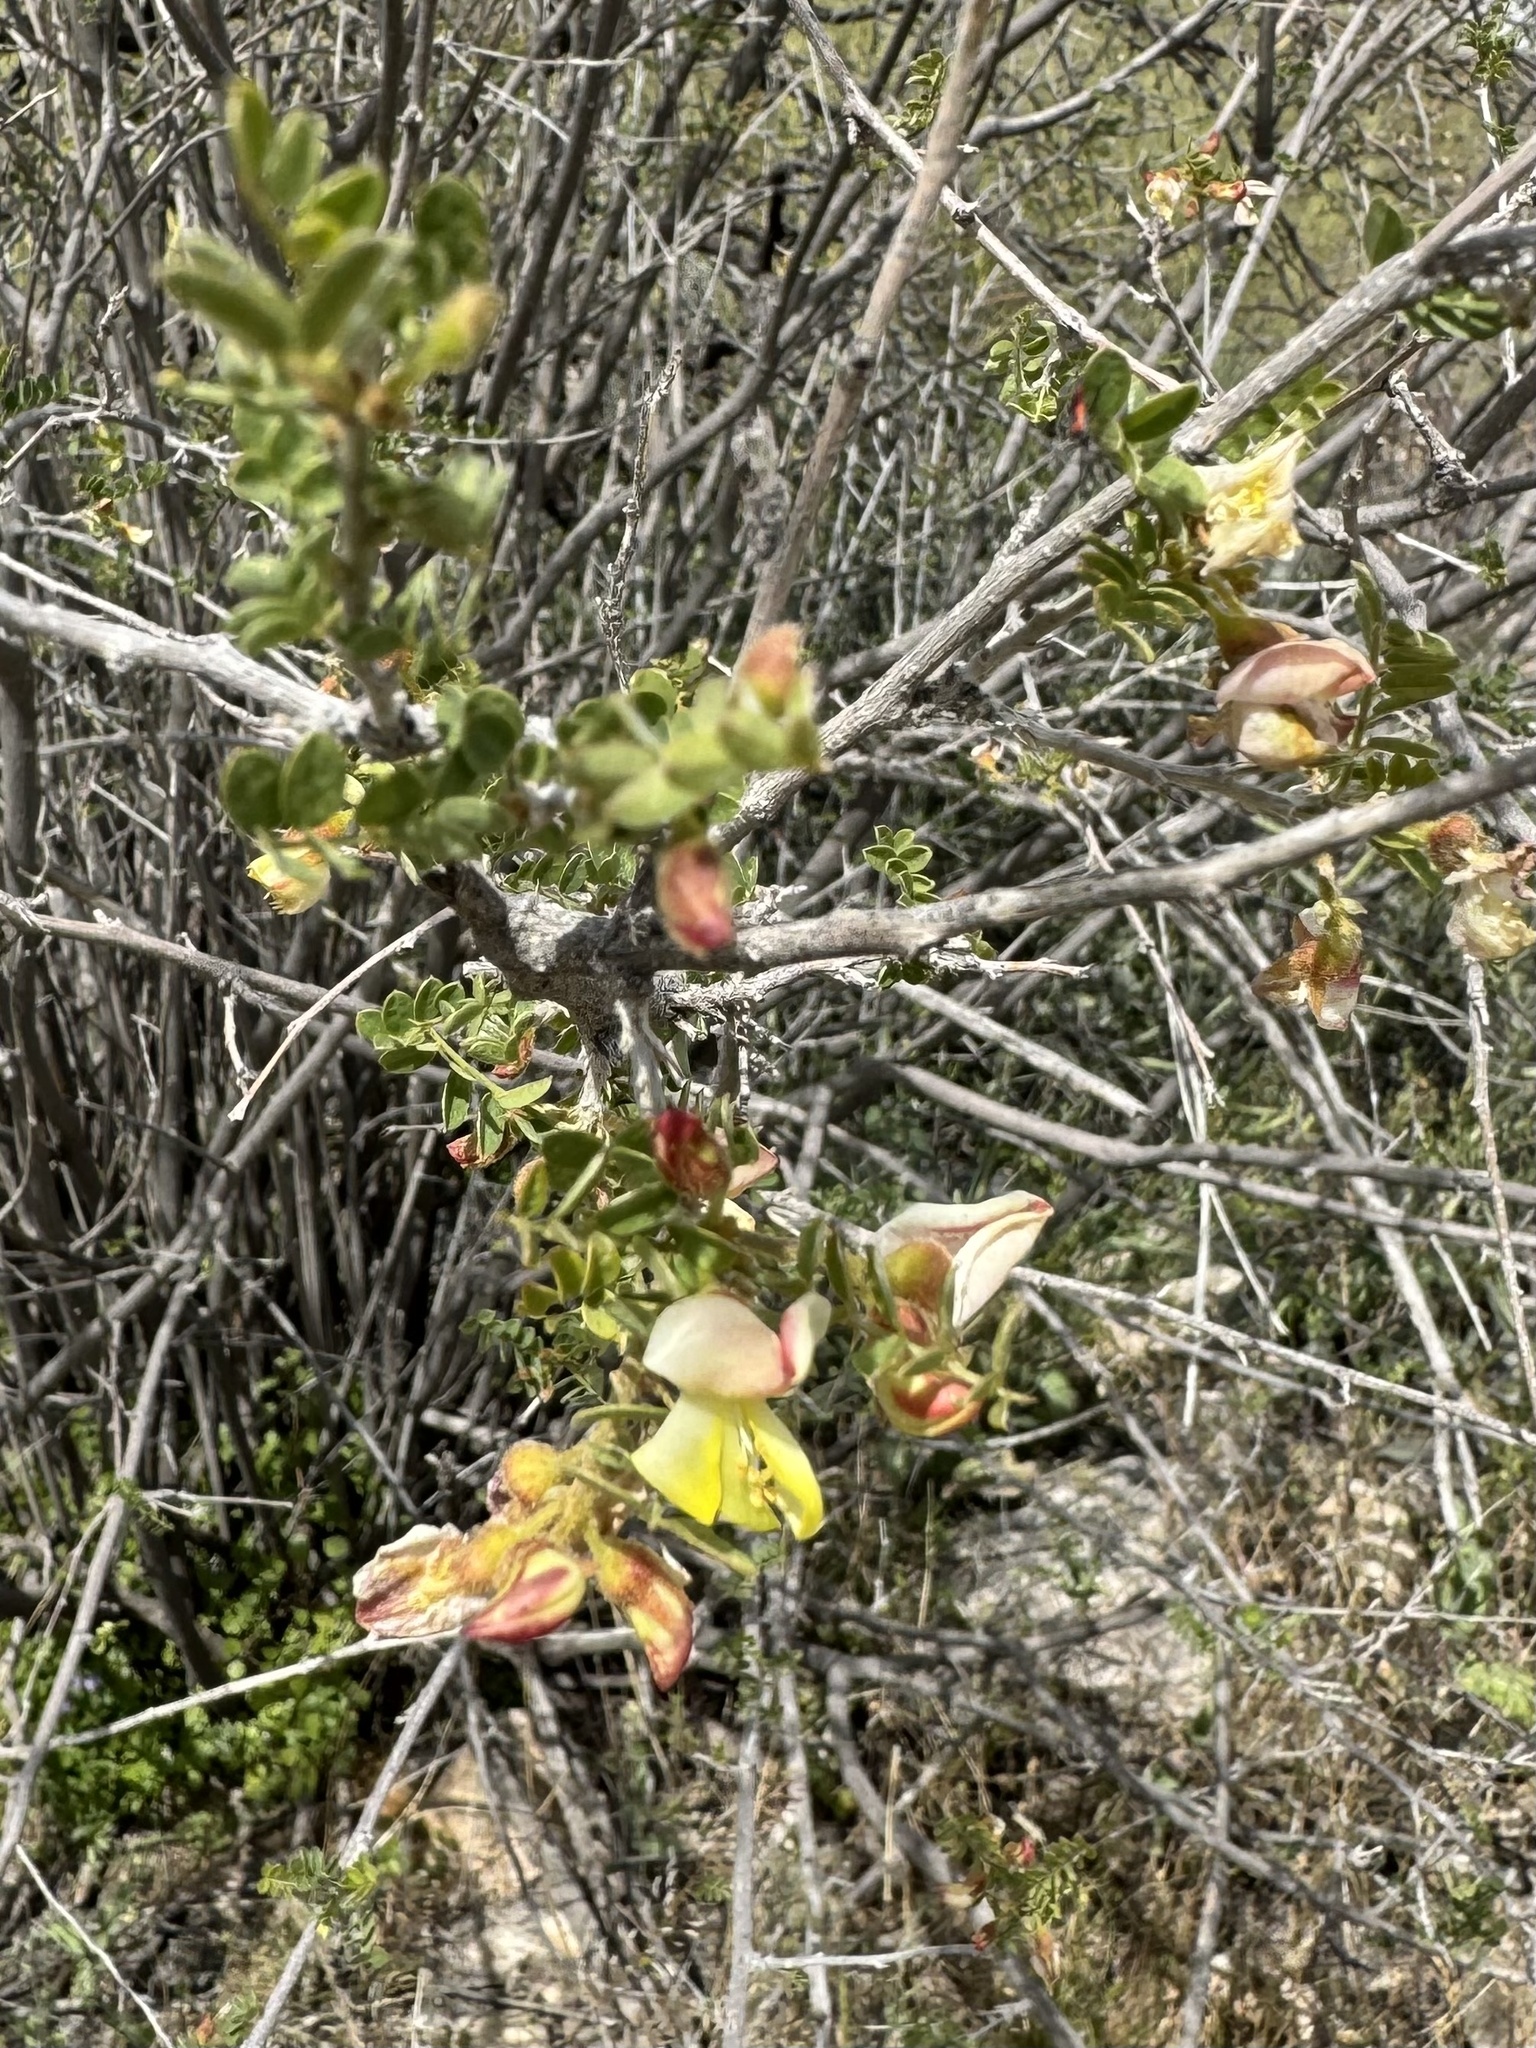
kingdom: Plantae
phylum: Tracheophyta
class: Magnoliopsida
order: Fabales
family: Fabaceae
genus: Coursetia
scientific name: Coursetia glandulosa
